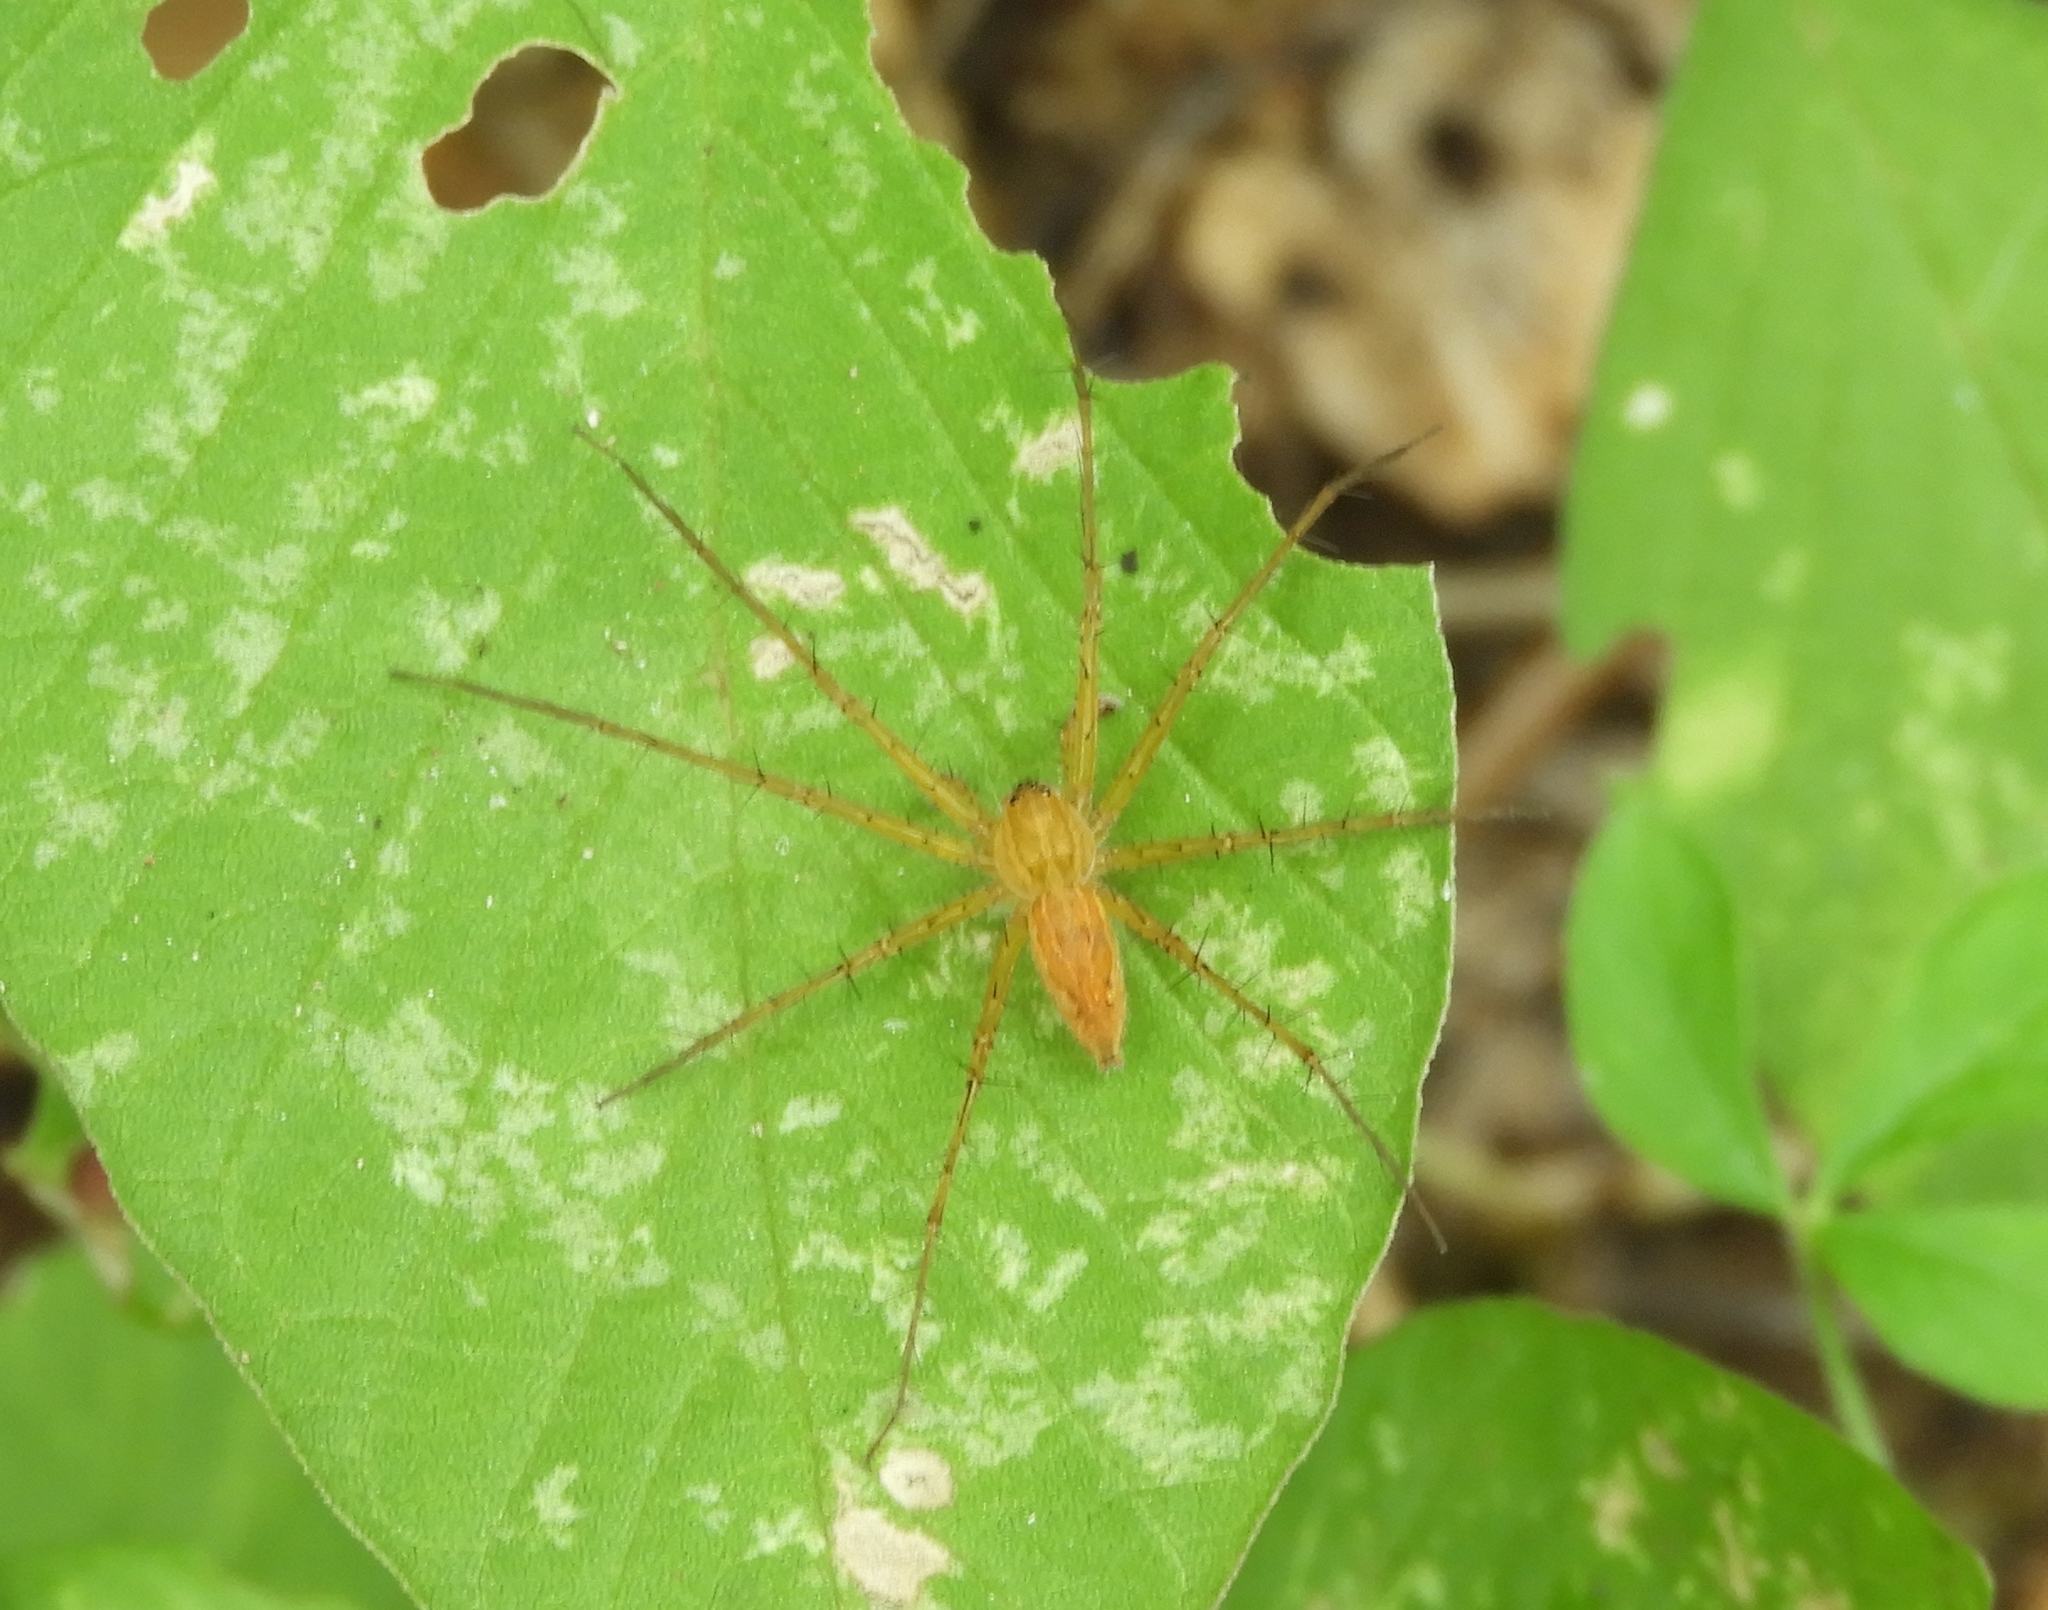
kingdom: Animalia
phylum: Arthropoda
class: Arachnida
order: Araneae
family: Pisauridae
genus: Tinus
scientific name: Tinus
